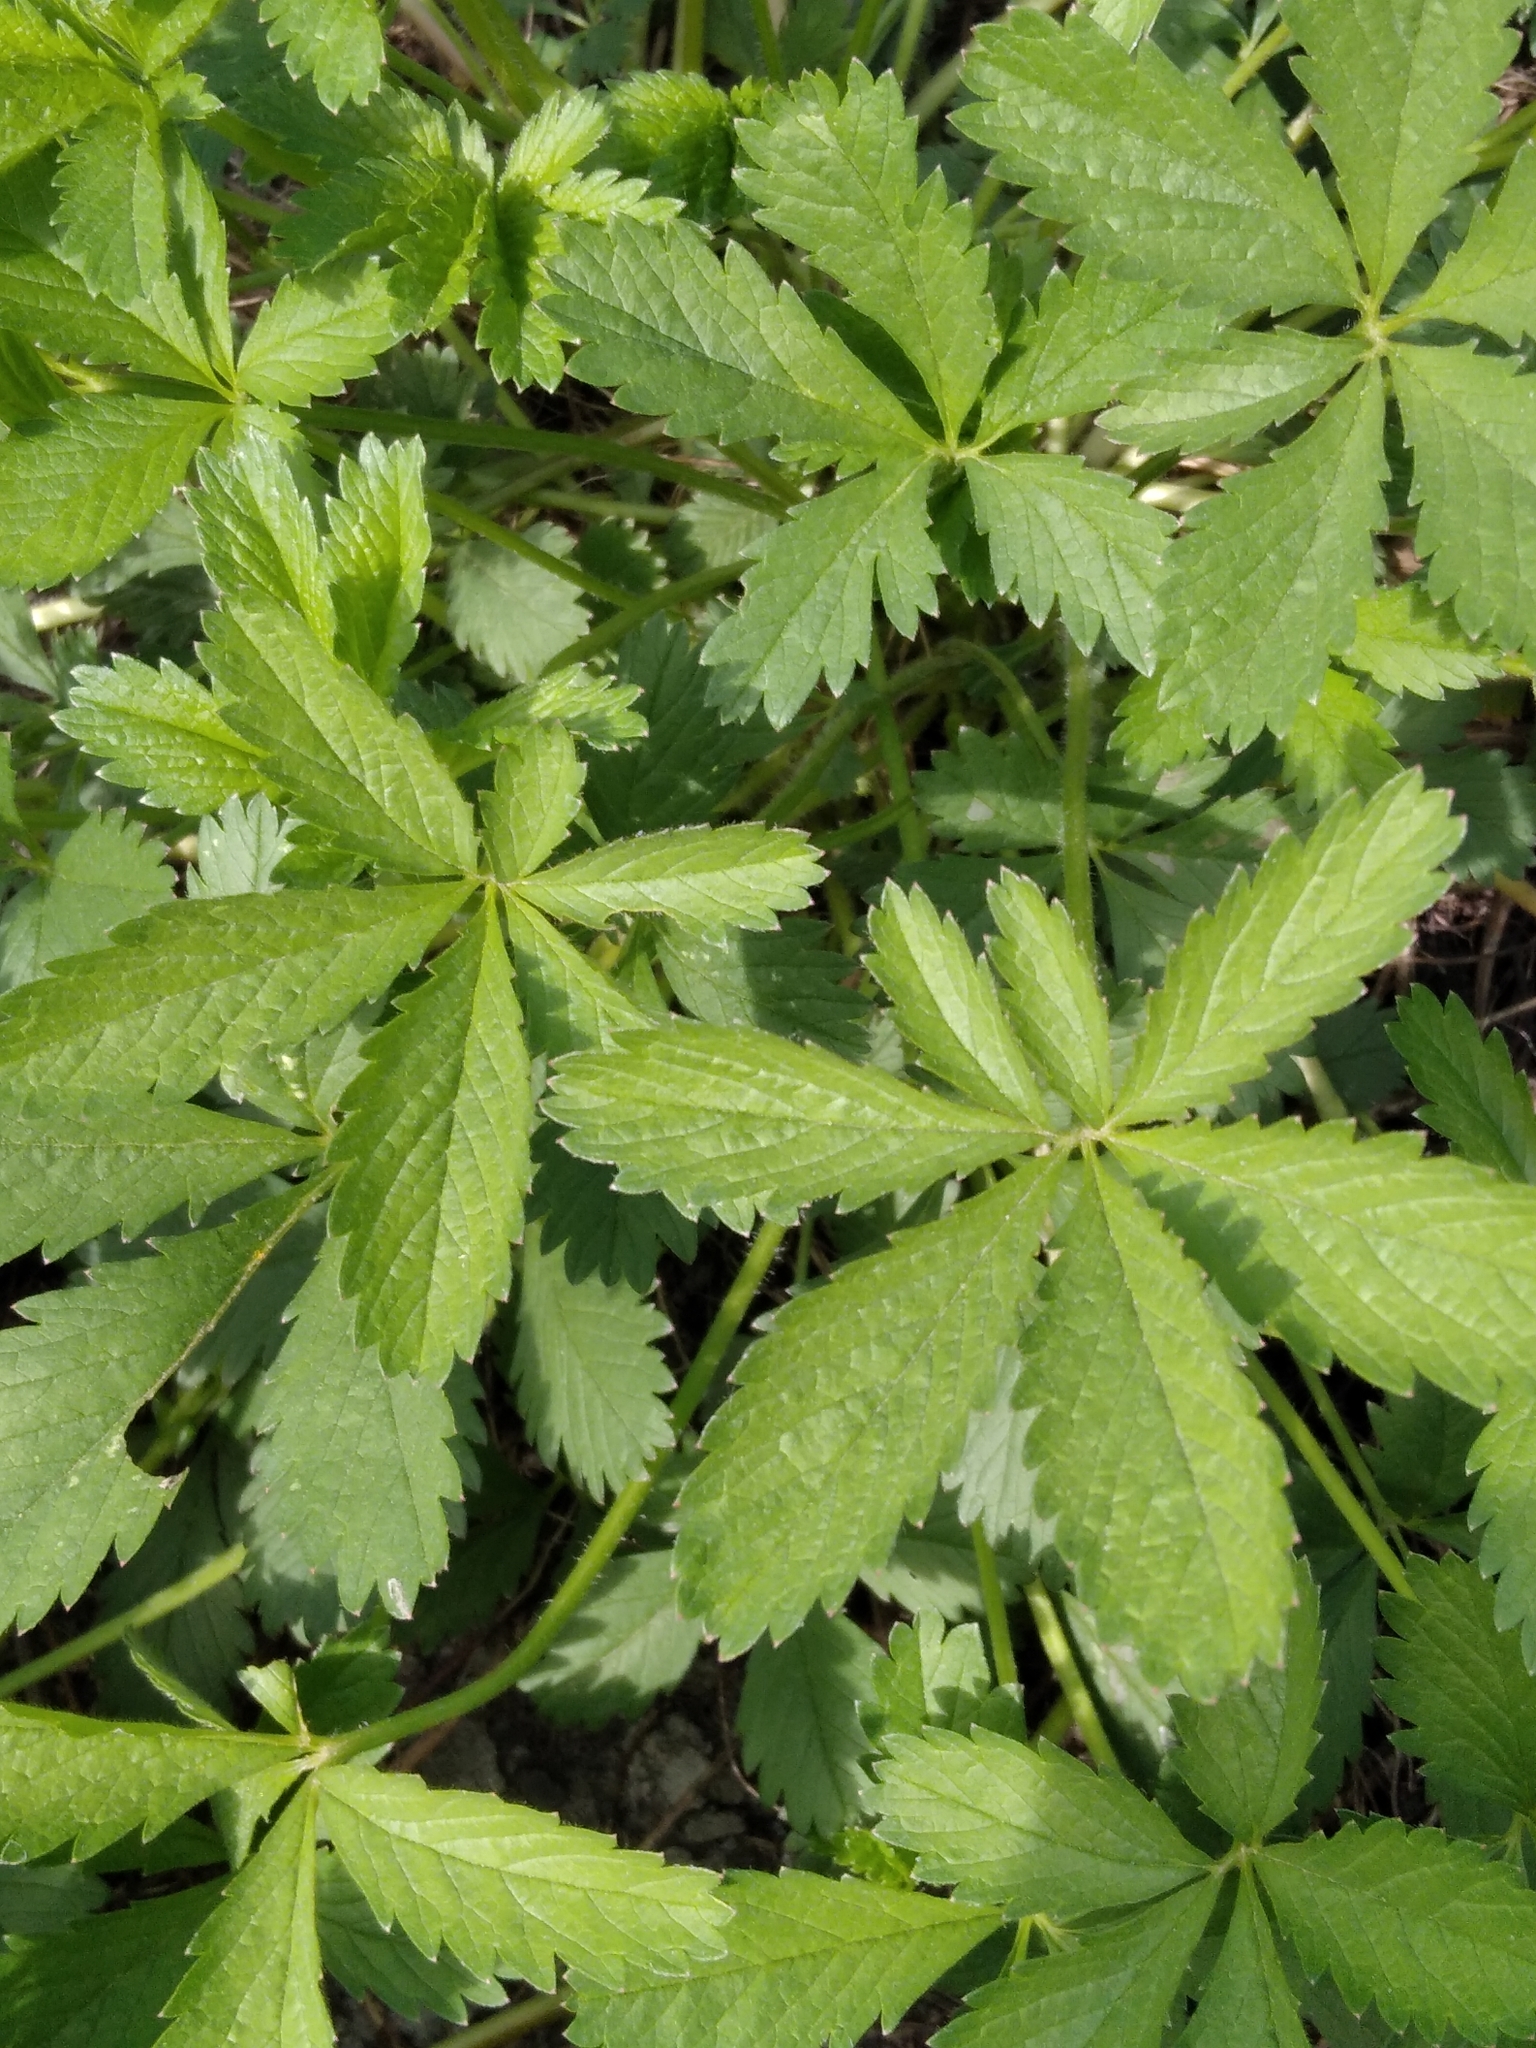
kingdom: Plantae
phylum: Tracheophyta
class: Magnoliopsida
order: Rosales
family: Rosaceae
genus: Potentilla
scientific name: Potentilla reptans
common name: Creeping cinquefoil
